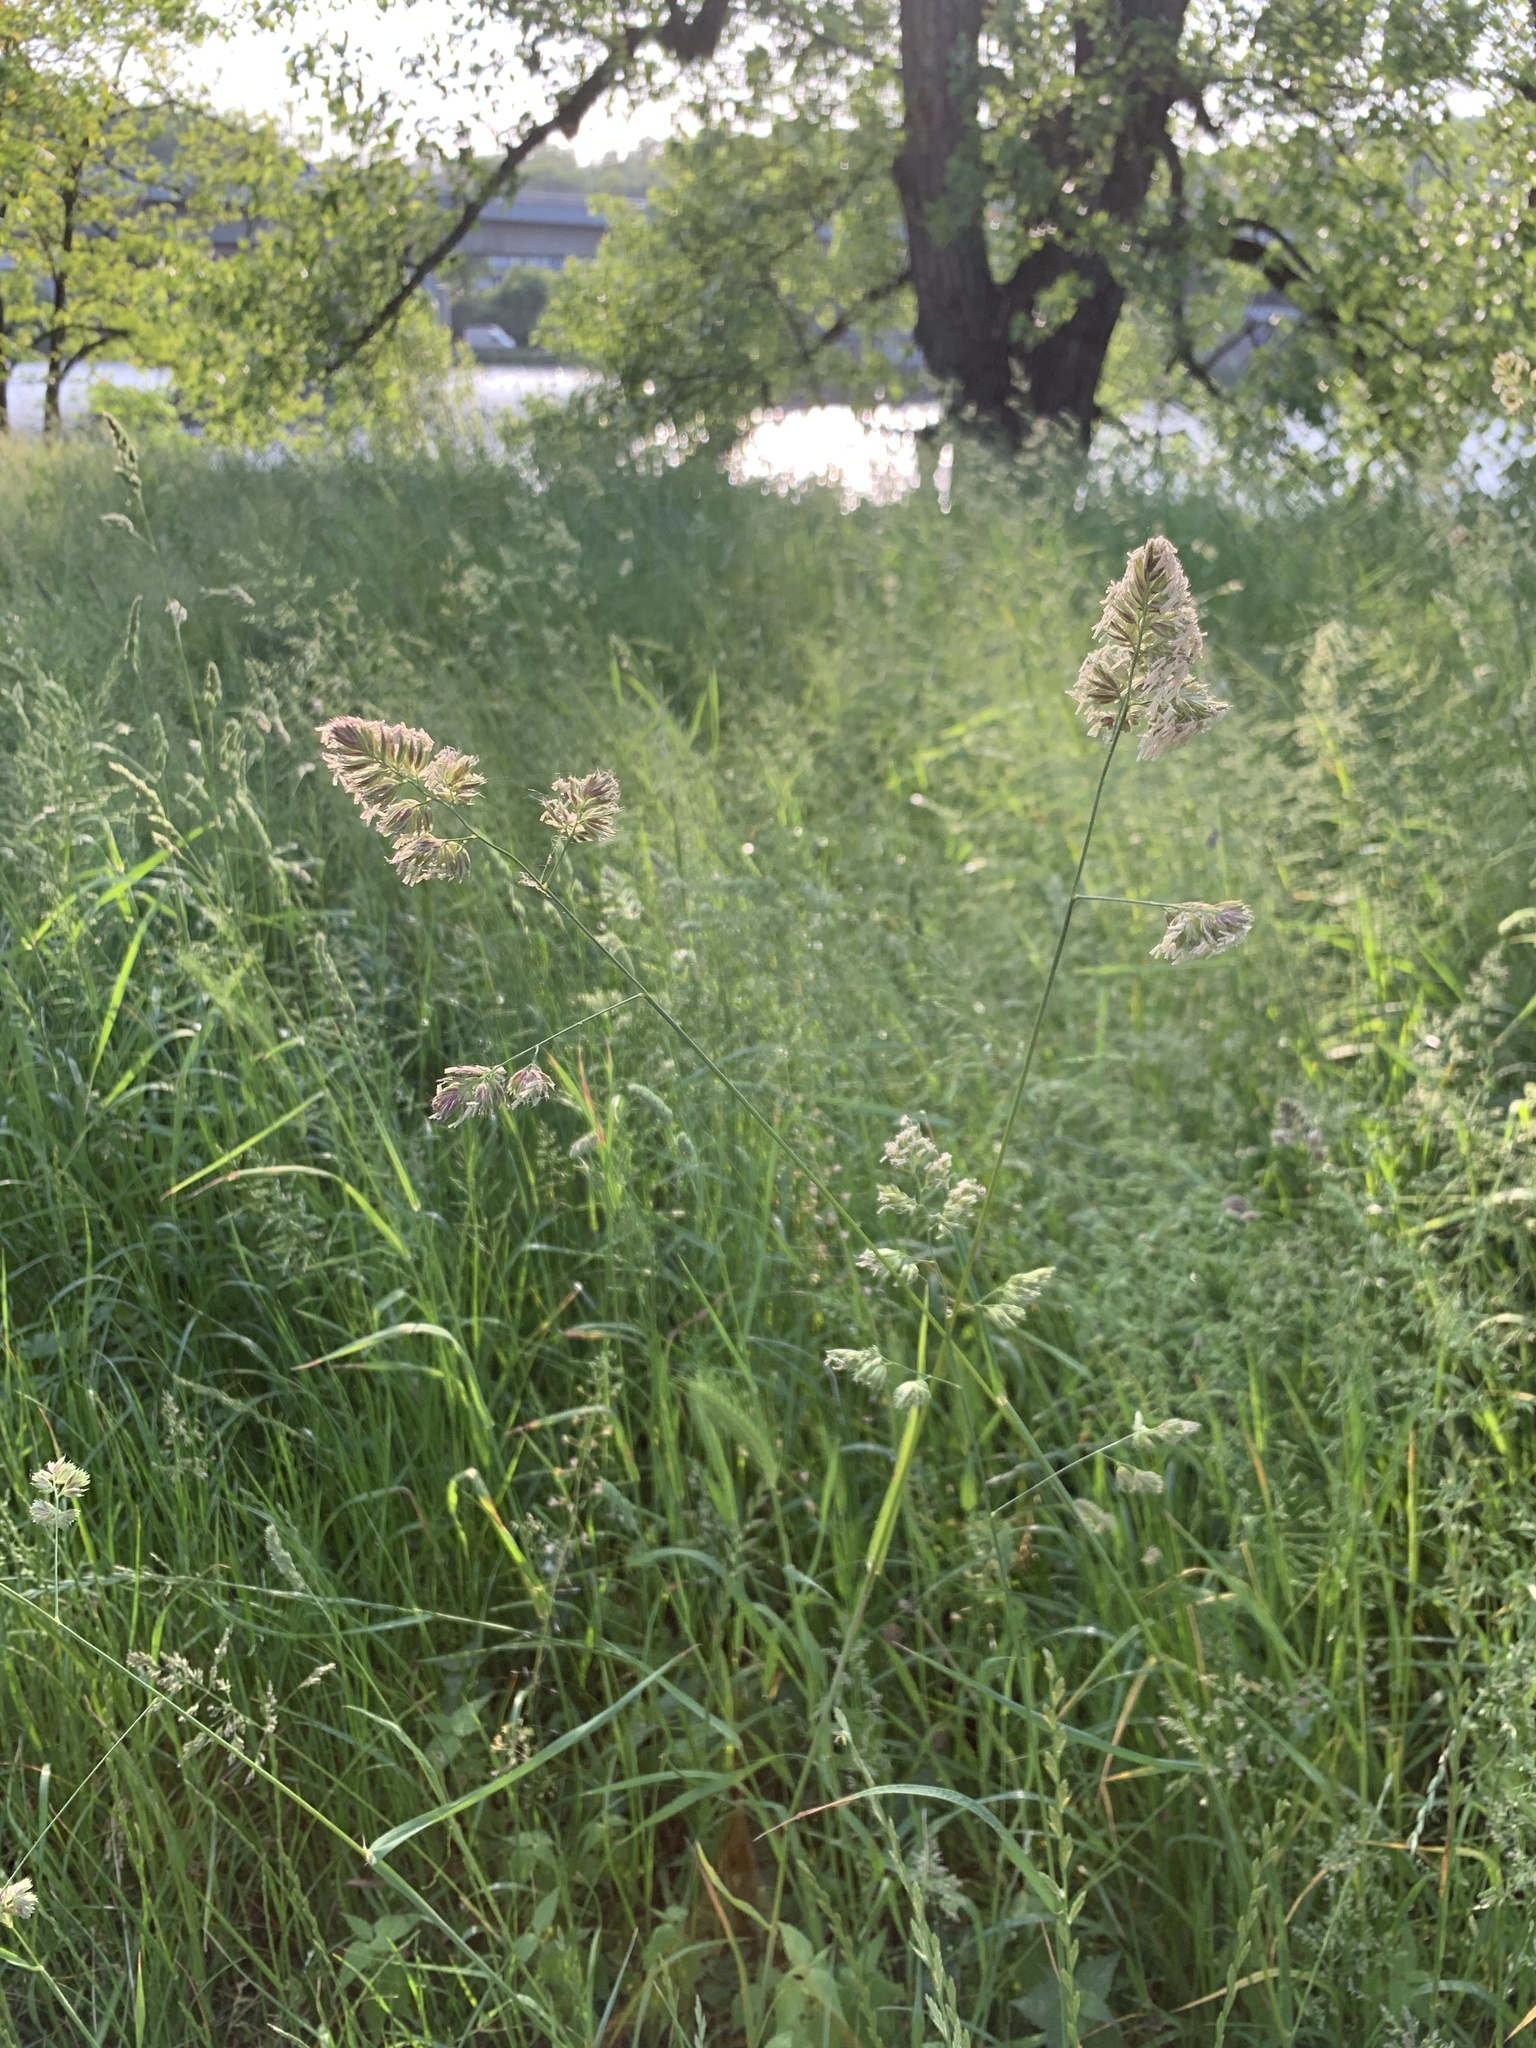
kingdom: Plantae
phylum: Tracheophyta
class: Liliopsida
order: Poales
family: Poaceae
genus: Dactylis
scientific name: Dactylis glomerata
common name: Orchardgrass
